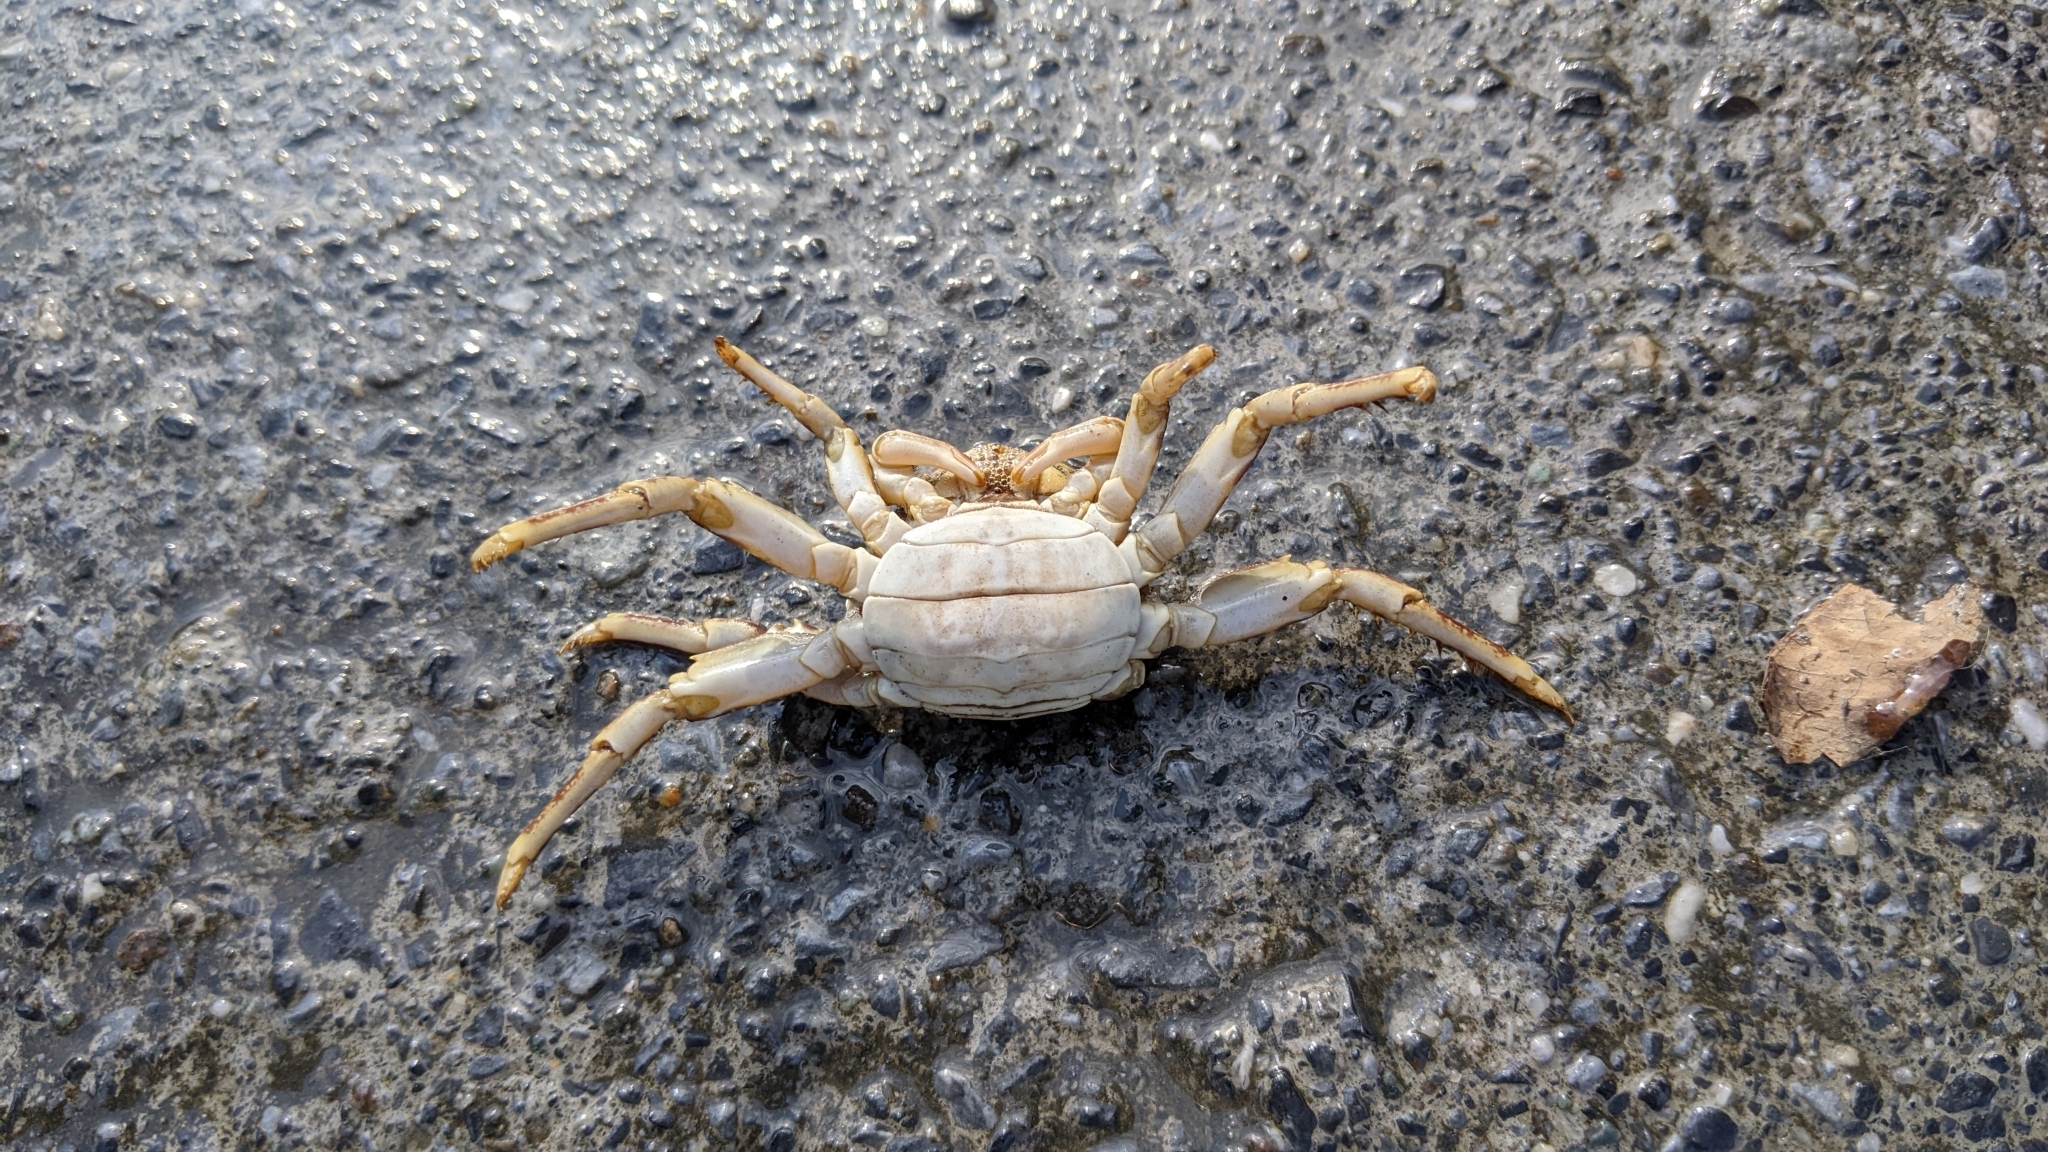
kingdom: Animalia
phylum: Arthropoda
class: Malacostraca
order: Decapoda
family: Plagusiidae
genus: Plagusia
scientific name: Plagusia squamosa
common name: Scaly rock crab
